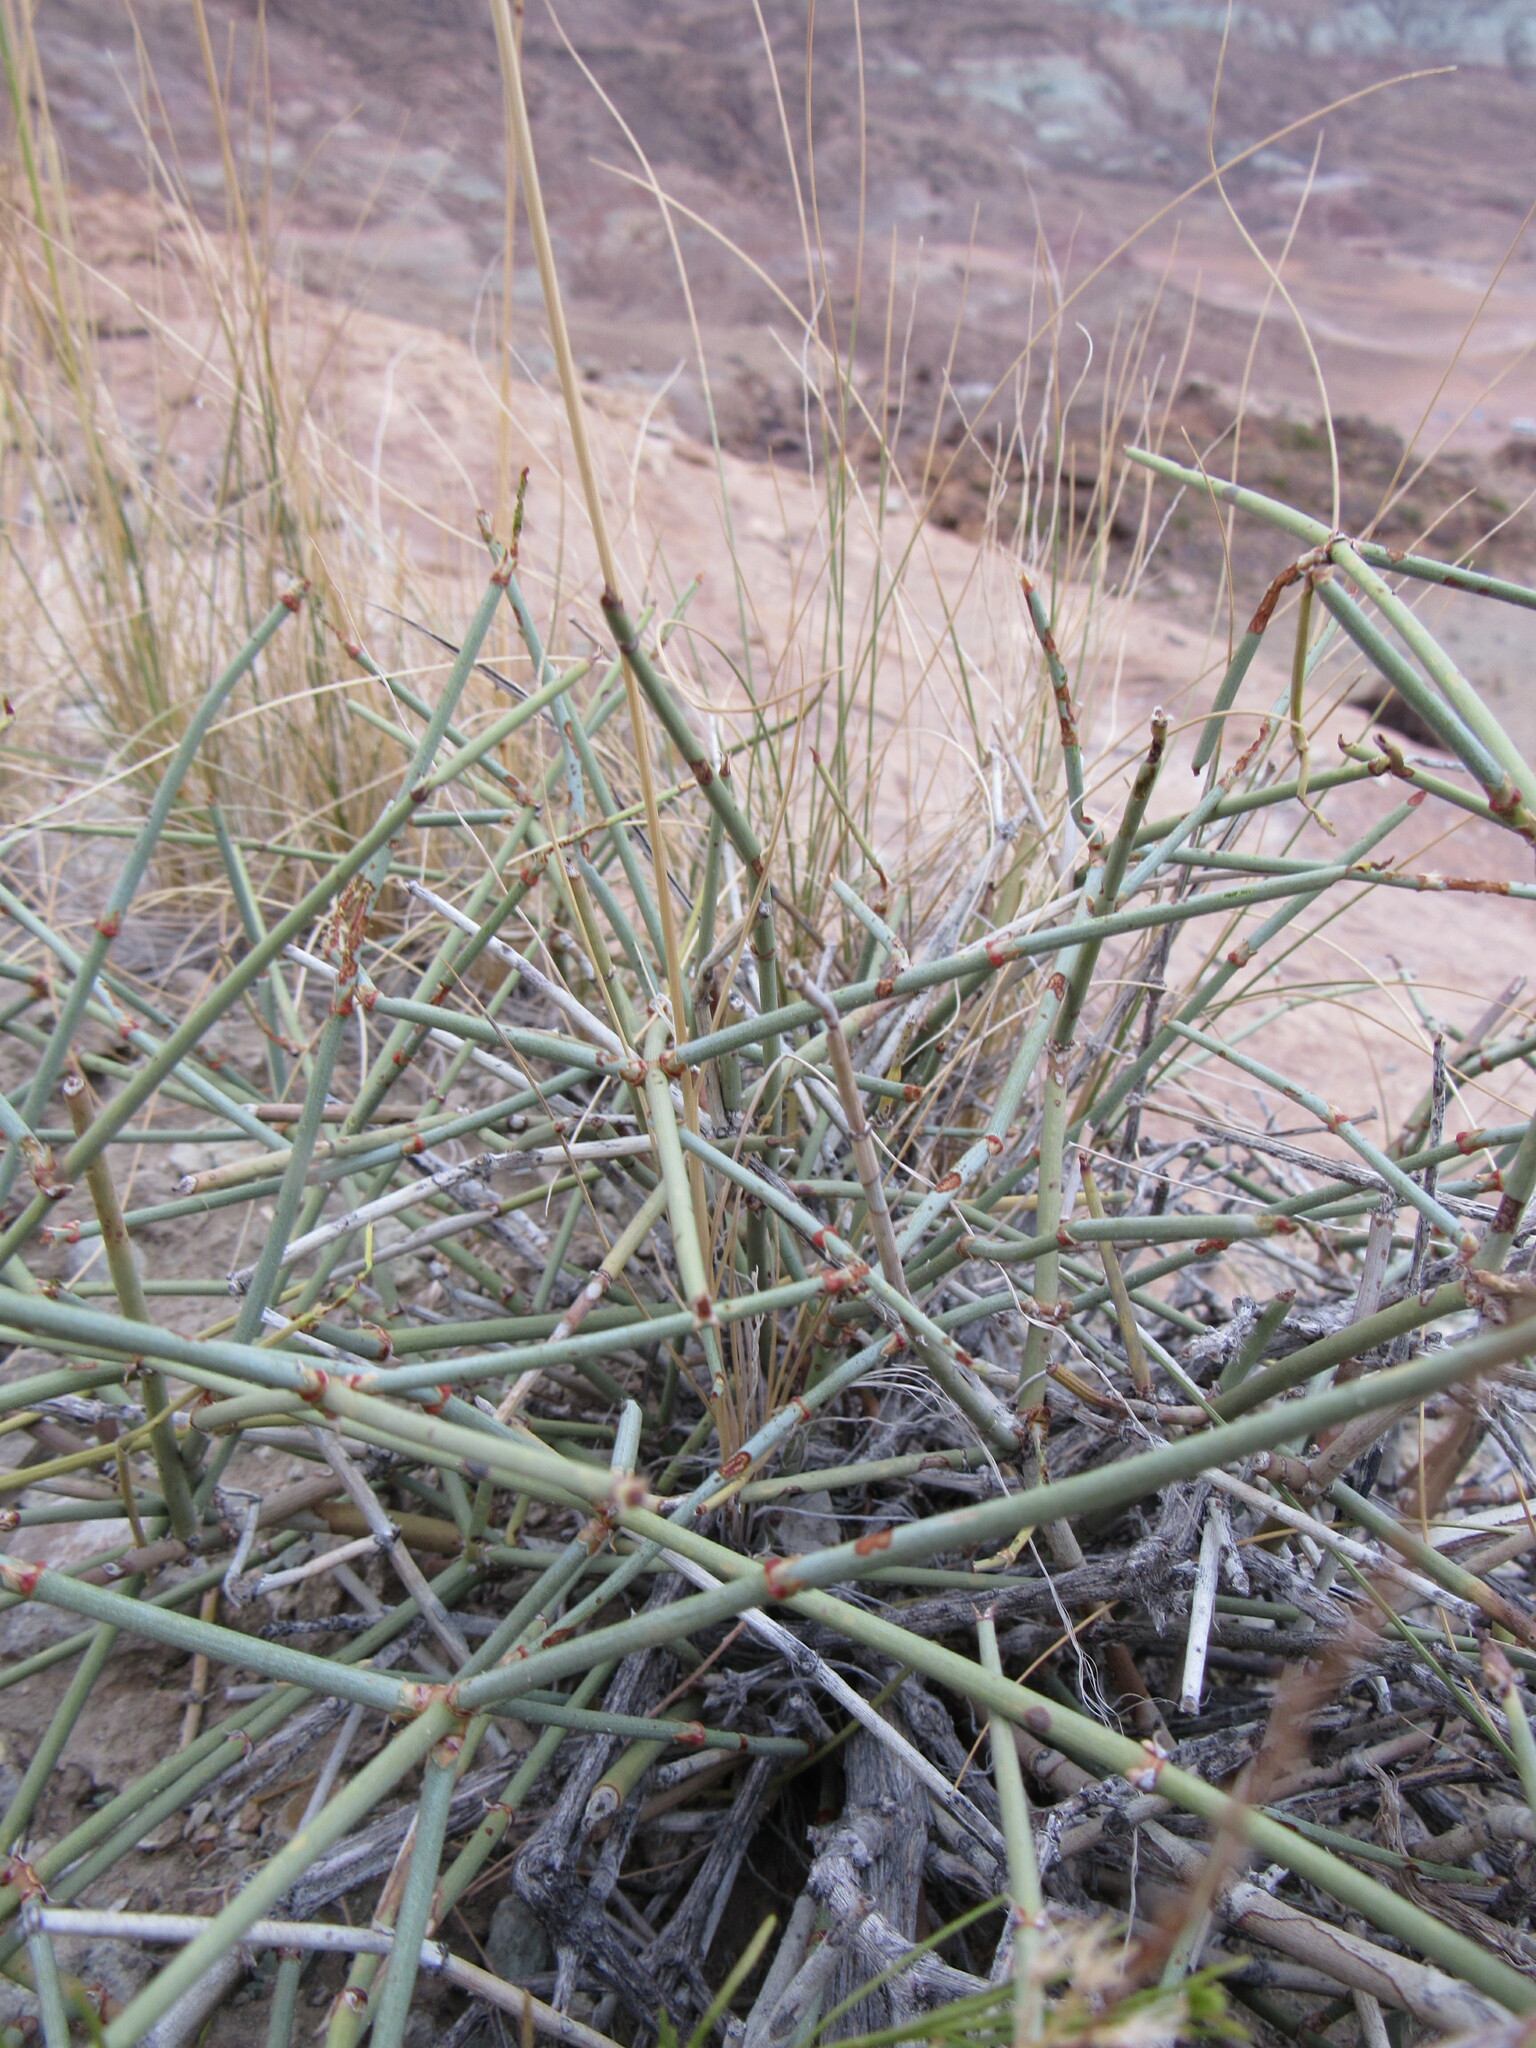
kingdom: Plantae
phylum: Tracheophyta
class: Gnetopsida
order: Ephedrales
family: Ephedraceae
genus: Ephedra
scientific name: Ephedra torreyana
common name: Torrey ephedra
